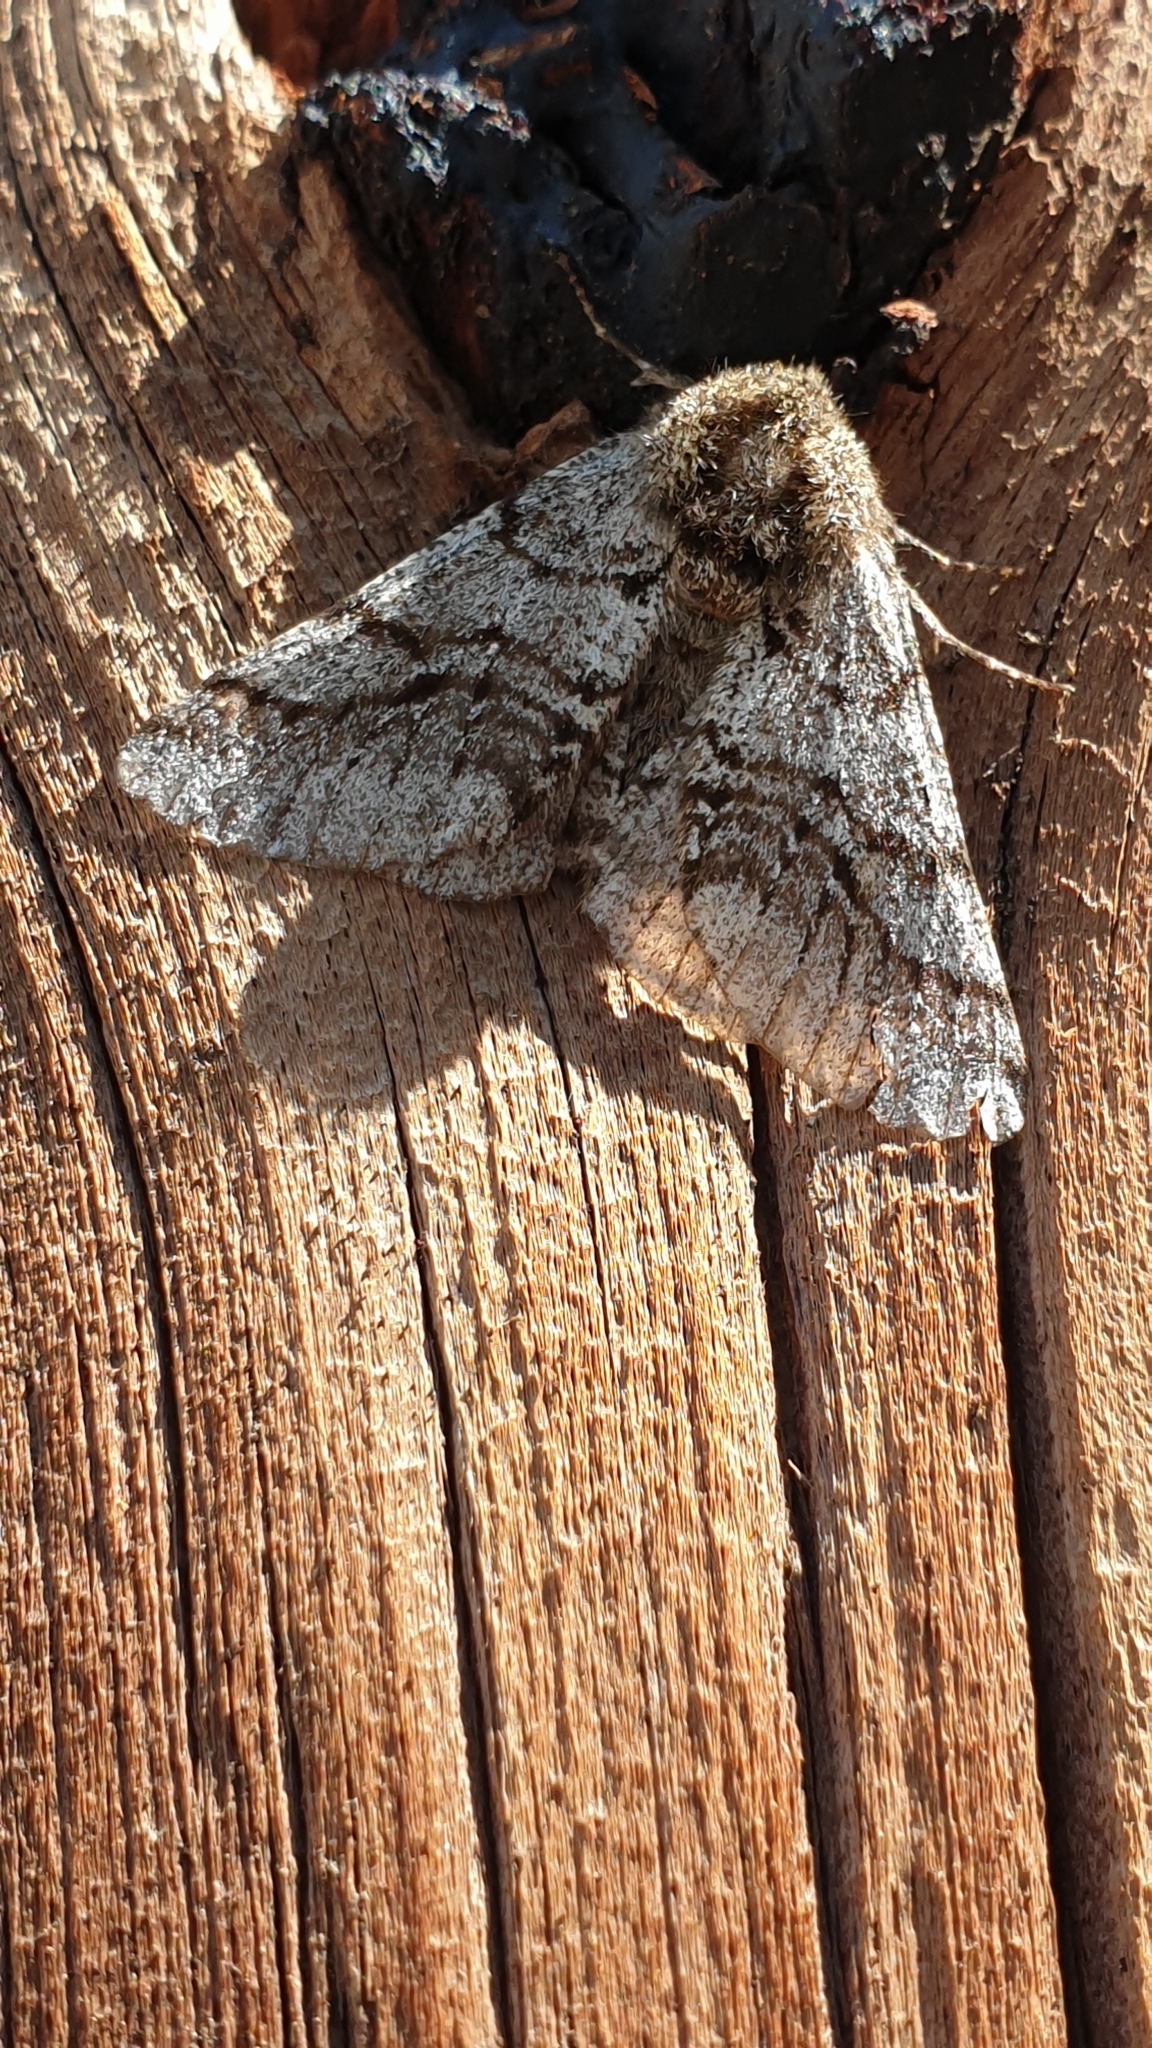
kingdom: Animalia
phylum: Arthropoda
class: Insecta
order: Lepidoptera
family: Geometridae
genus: Lycia
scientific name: Lycia hirtaria
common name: Brindled beauty
